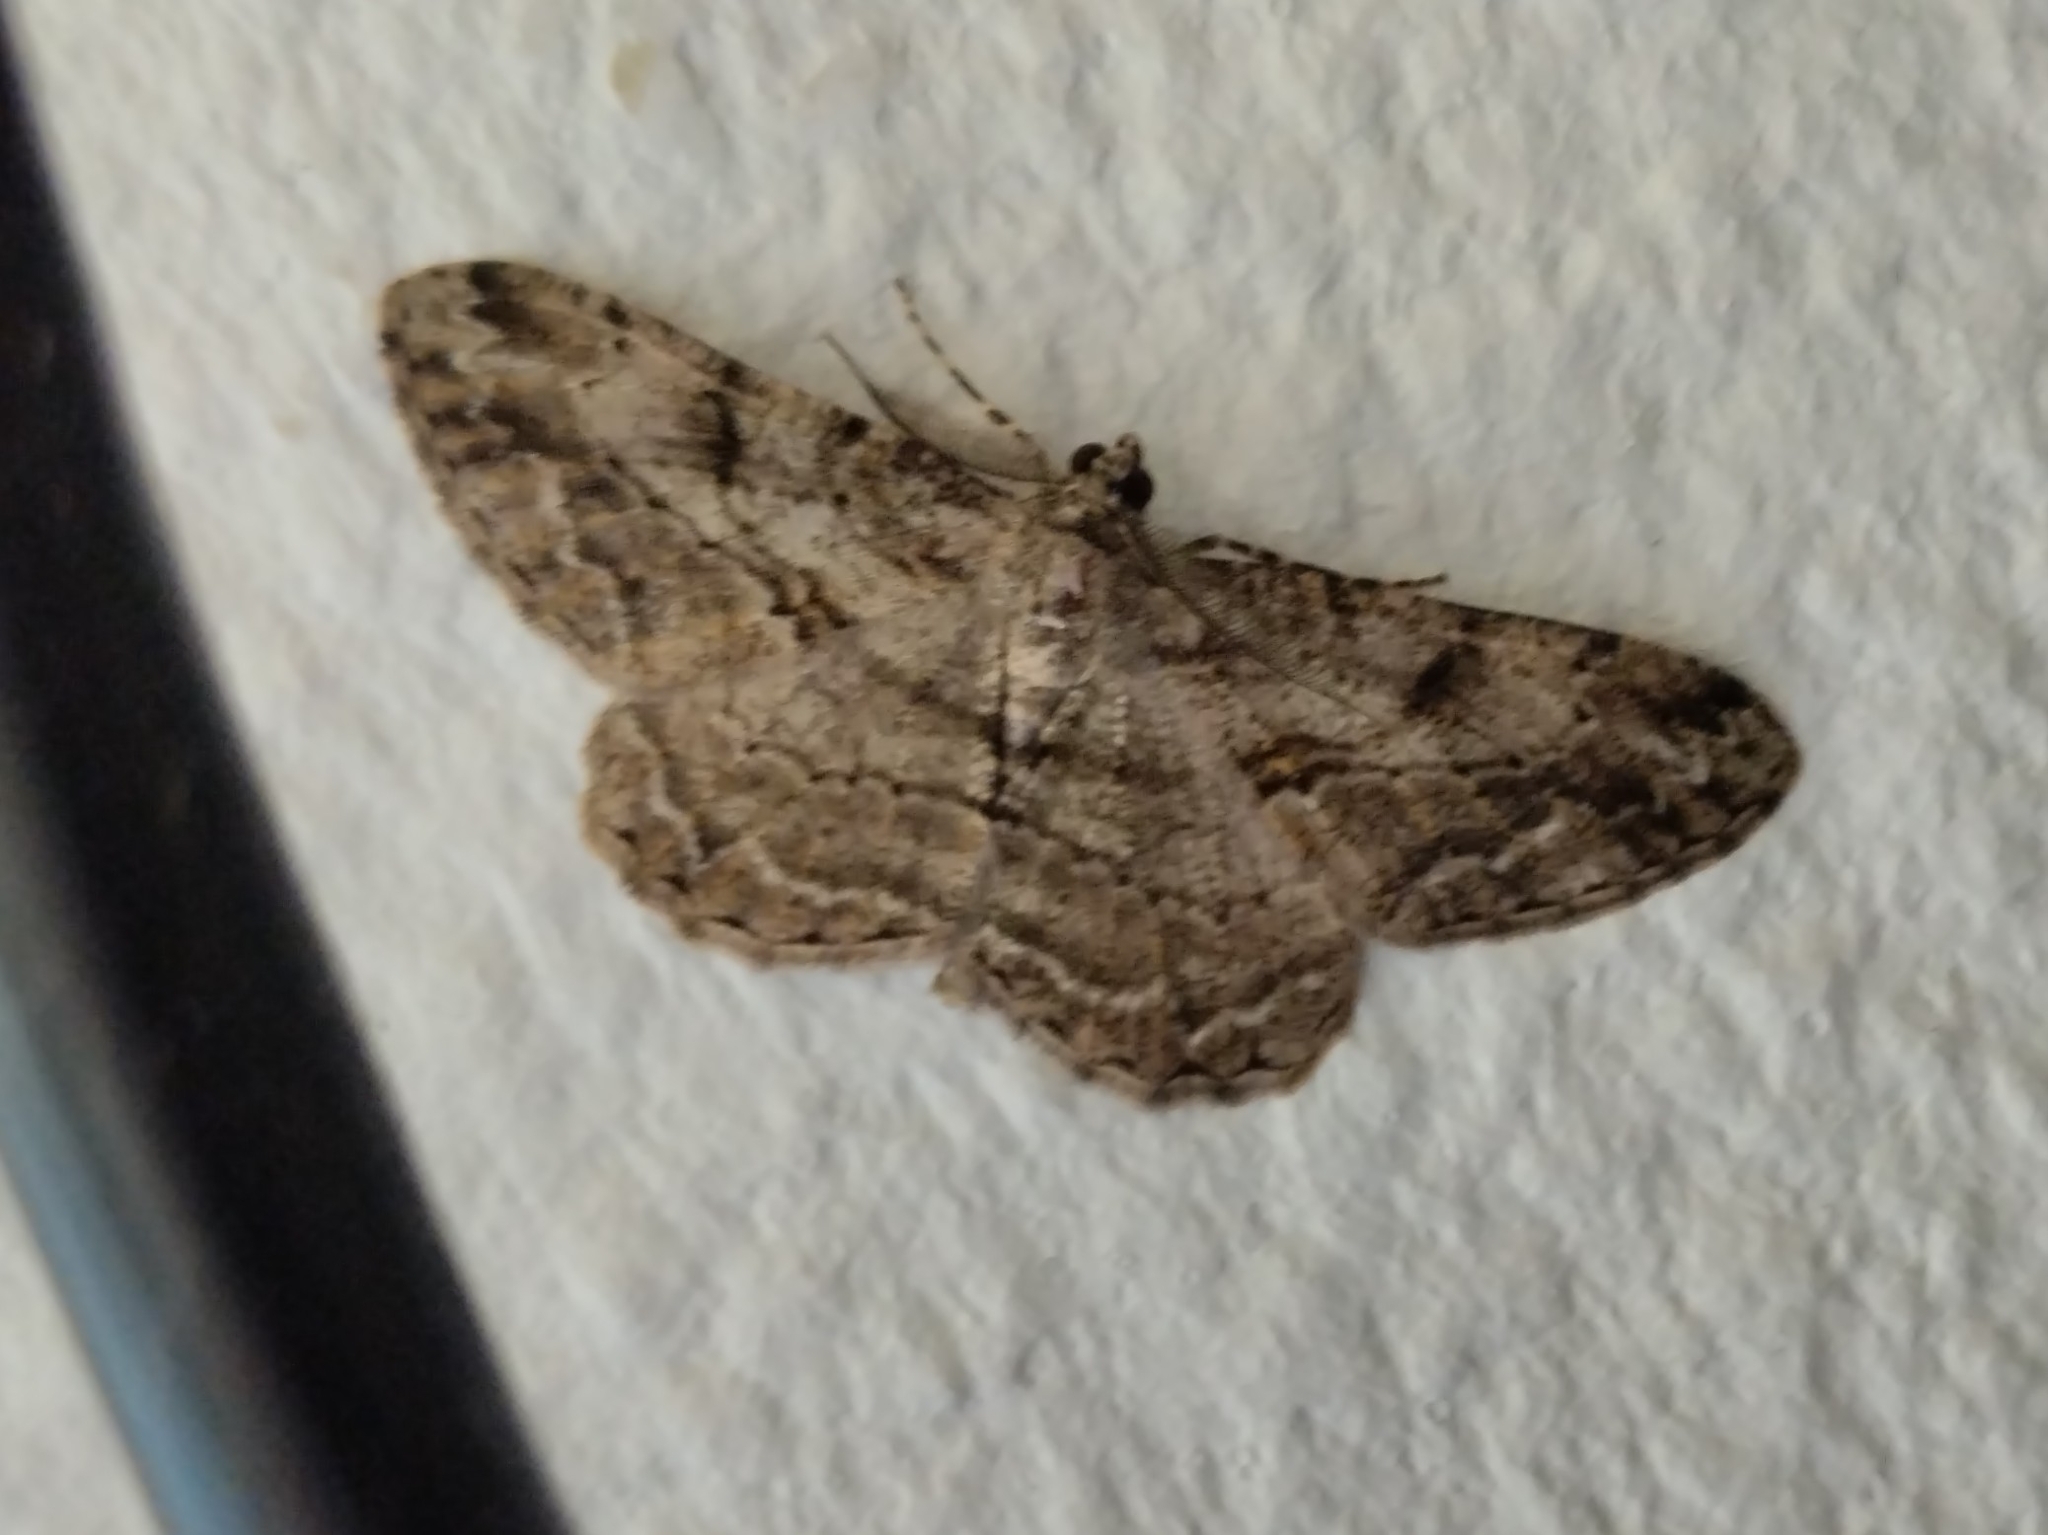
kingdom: Animalia
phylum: Arthropoda
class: Insecta
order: Lepidoptera
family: Geometridae
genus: Peribatodes
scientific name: Peribatodes rhomboidaria
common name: Willow beauty
